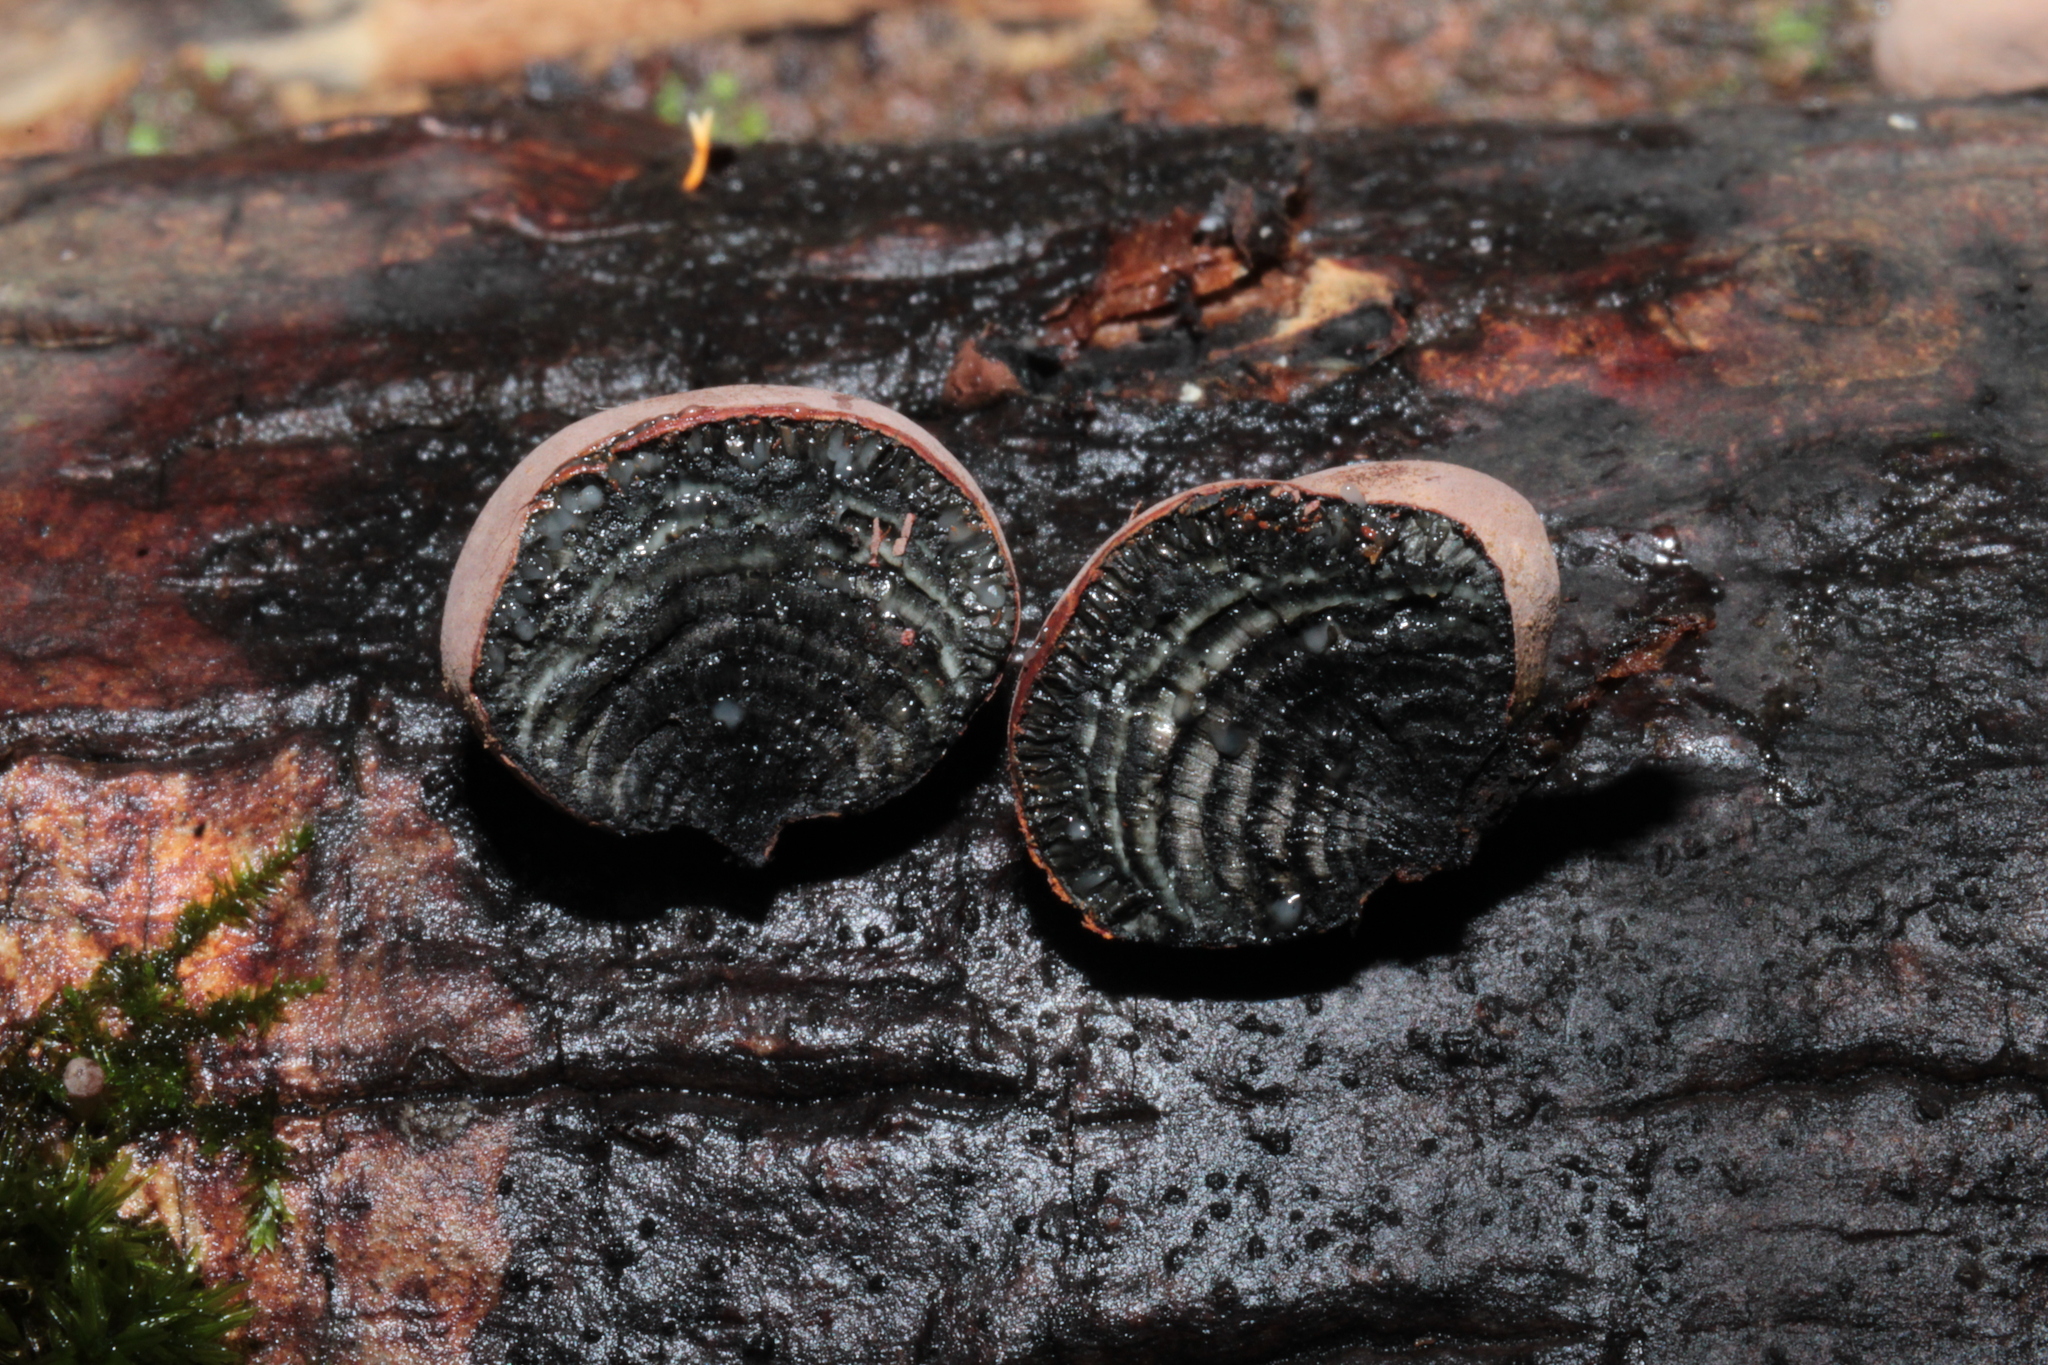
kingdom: Fungi
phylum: Ascomycota
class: Sordariomycetes
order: Xylariales
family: Hypoxylaceae
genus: Daldinia
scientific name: Daldinia childiae
